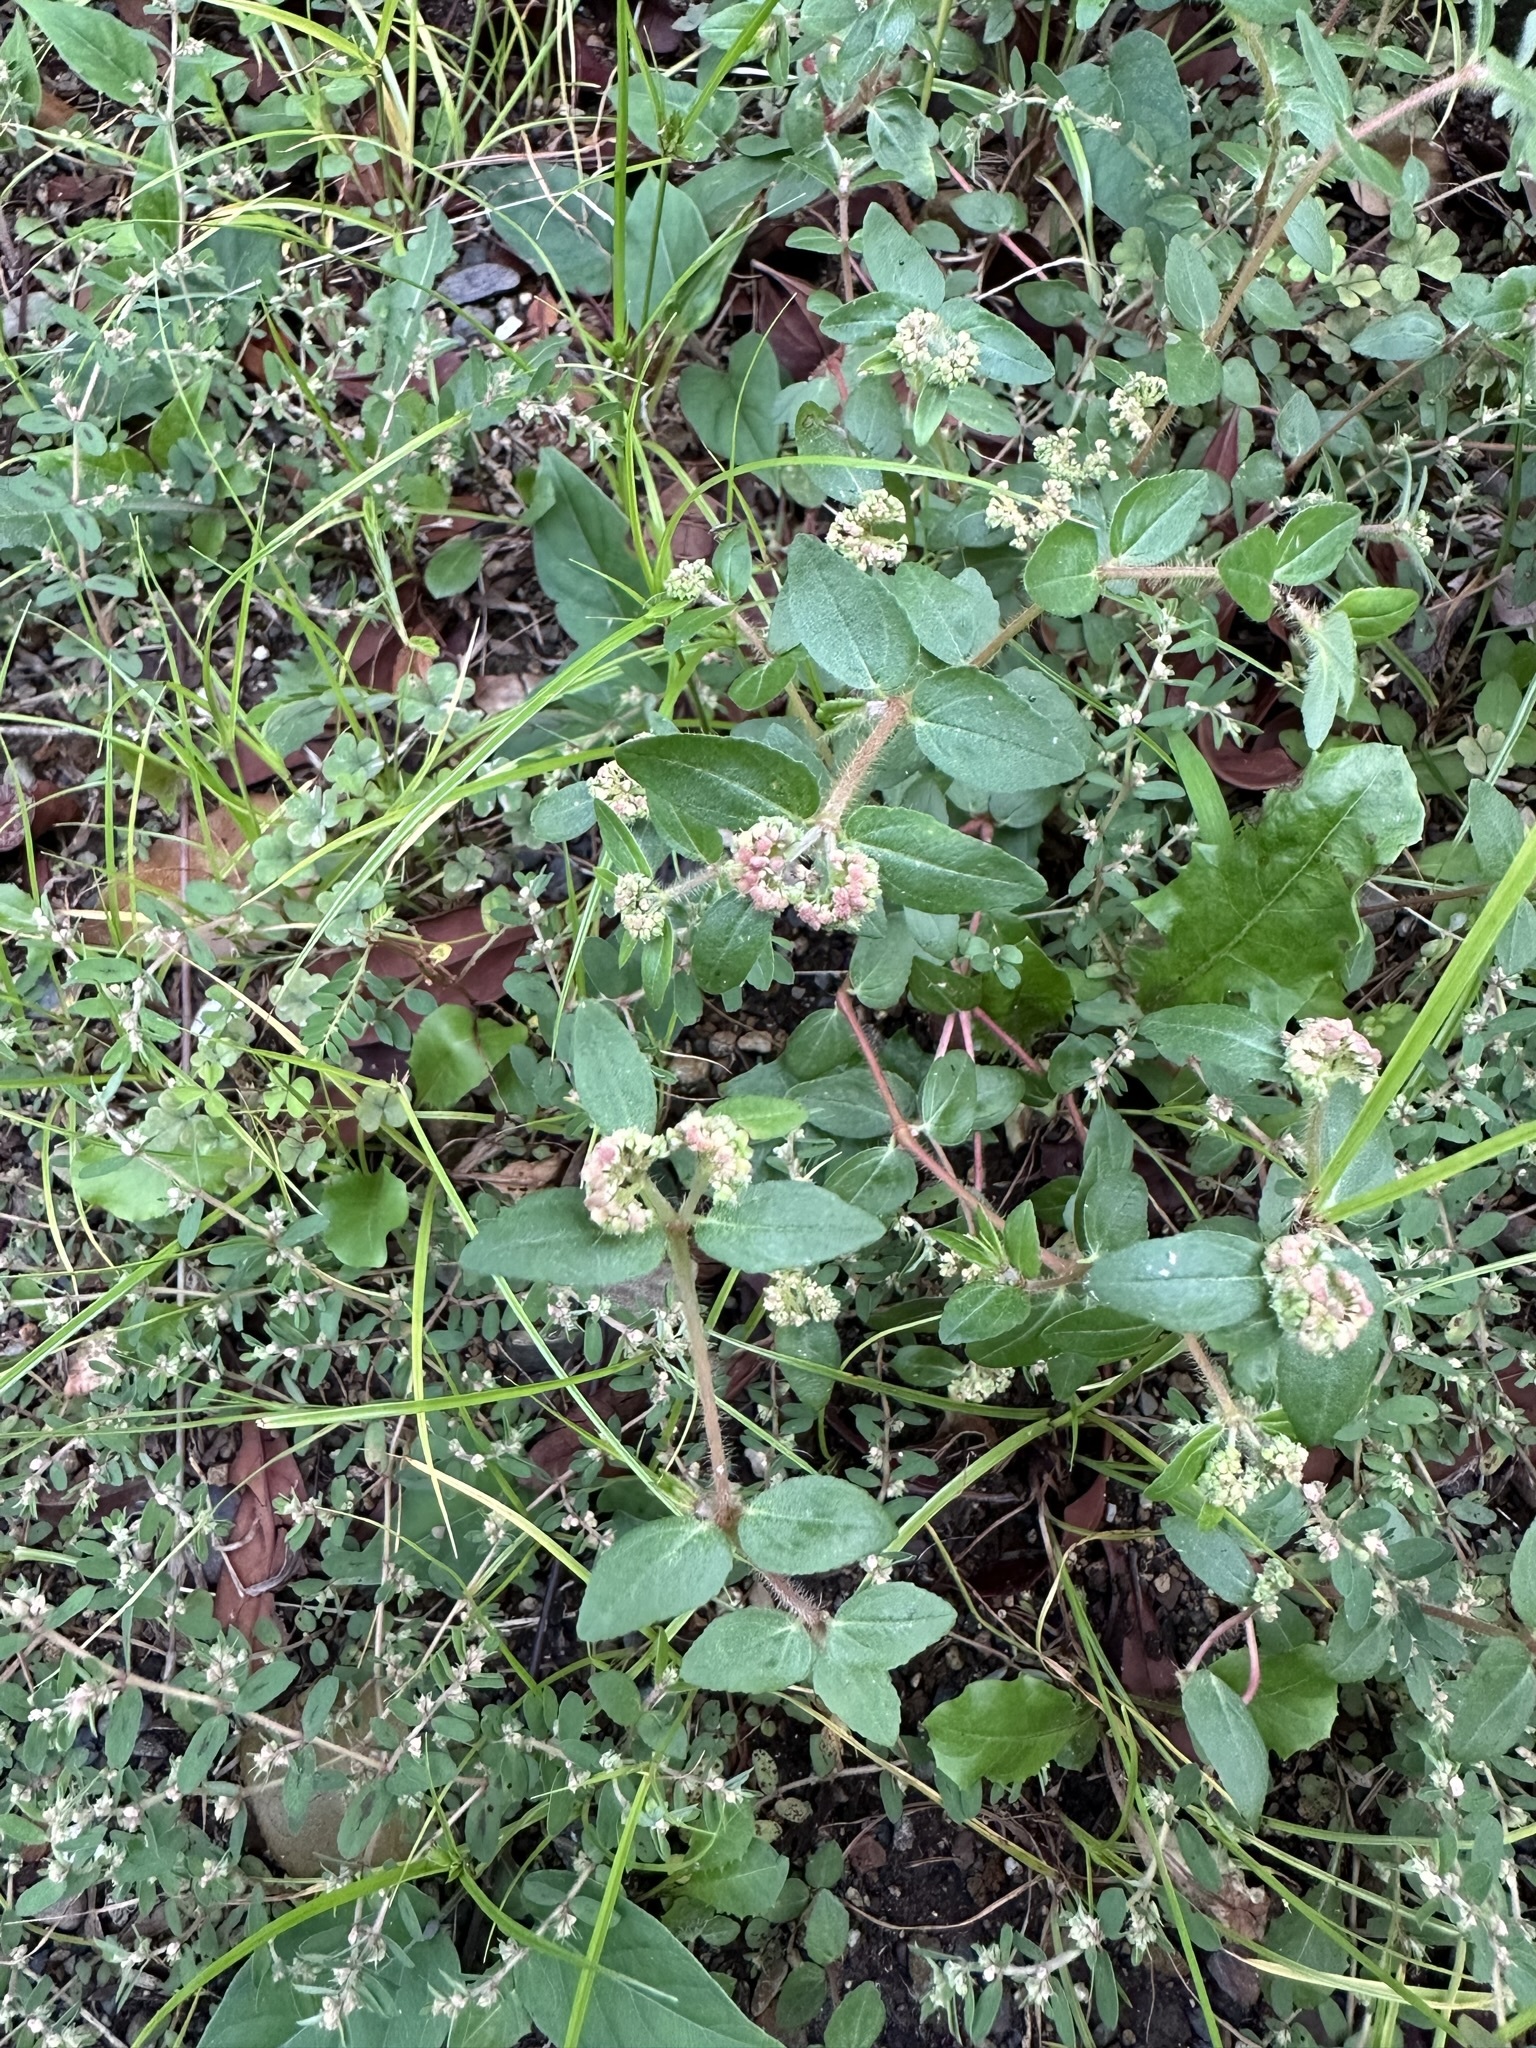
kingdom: Plantae
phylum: Tracheophyta
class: Magnoliopsida
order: Malpighiales
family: Euphorbiaceae
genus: Euphorbia
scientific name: Euphorbia ophthalmica
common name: Florida hammock sandmat
